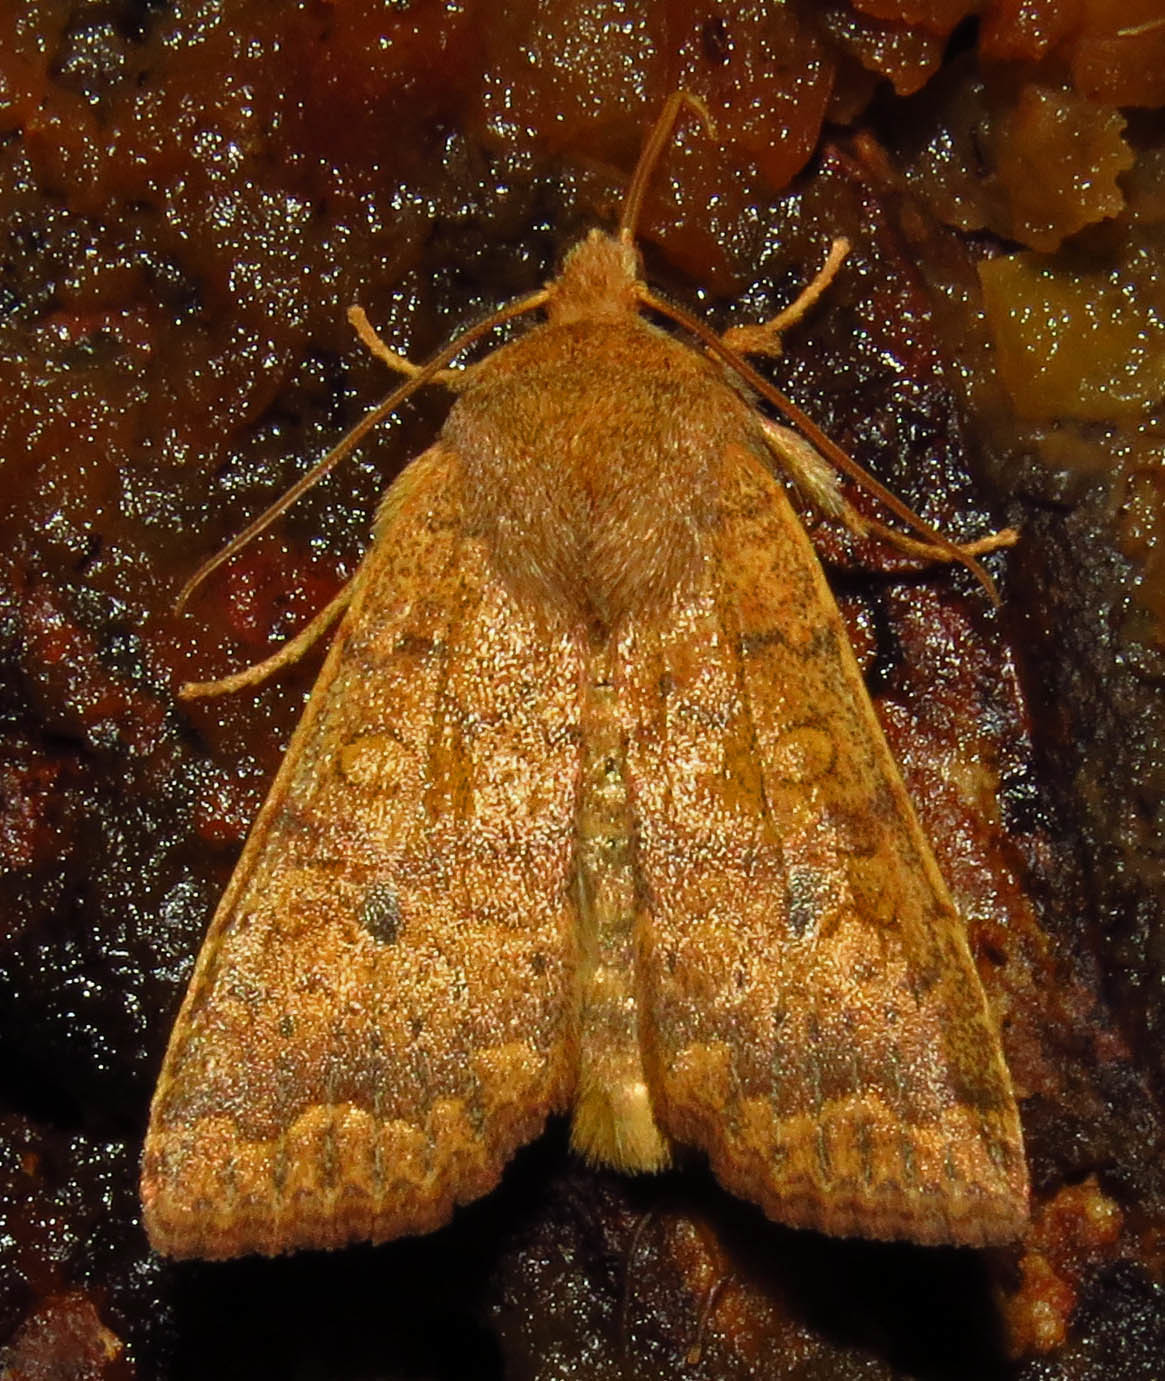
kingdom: Animalia
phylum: Arthropoda
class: Insecta
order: Lepidoptera
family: Noctuidae
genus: Agrochola
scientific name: Agrochola bicolorago
